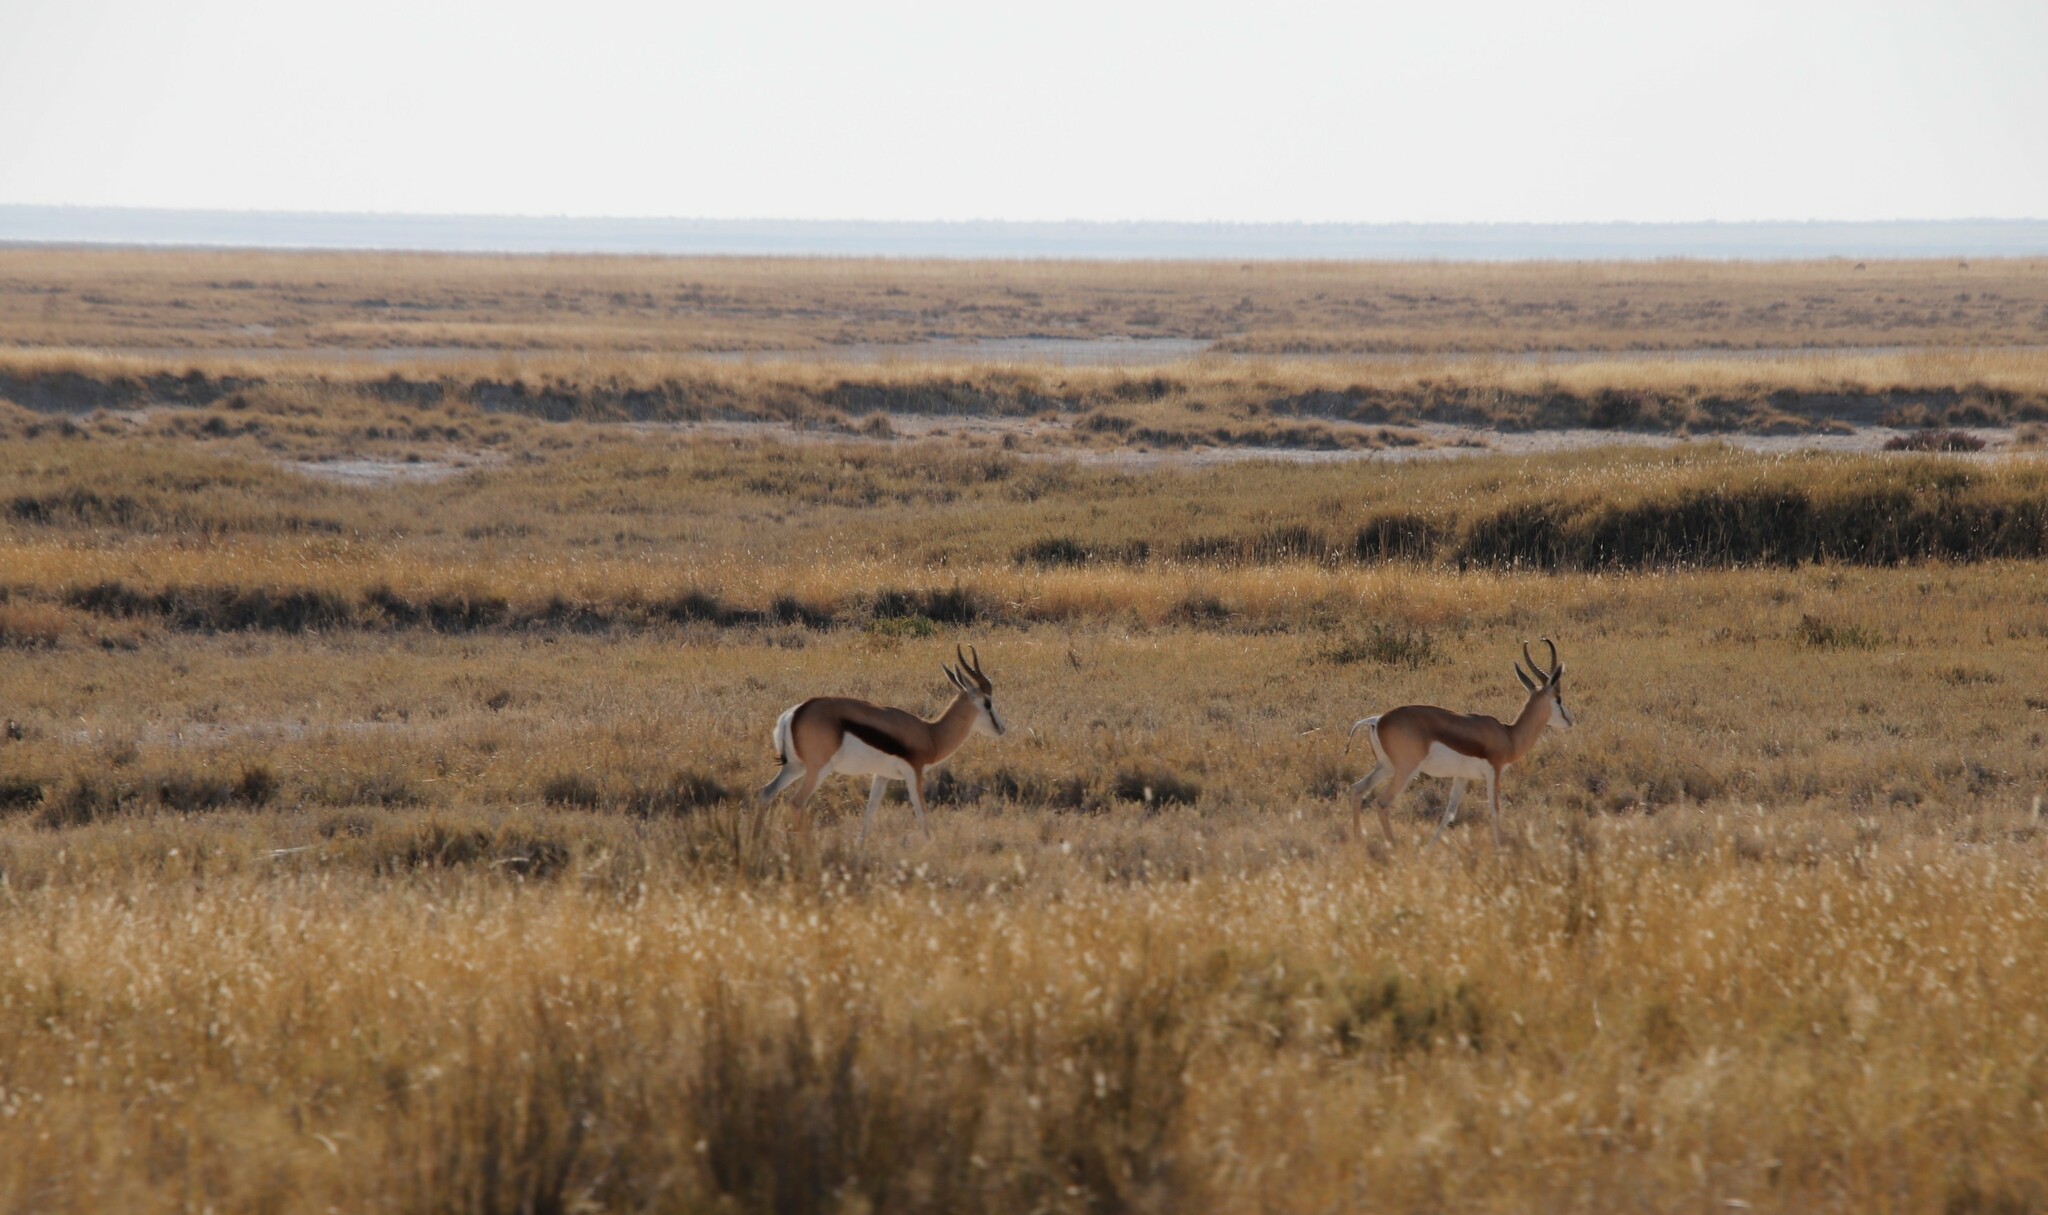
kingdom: Animalia
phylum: Chordata
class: Mammalia
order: Artiodactyla
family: Bovidae
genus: Antidorcas
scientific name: Antidorcas marsupialis
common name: Springbok
